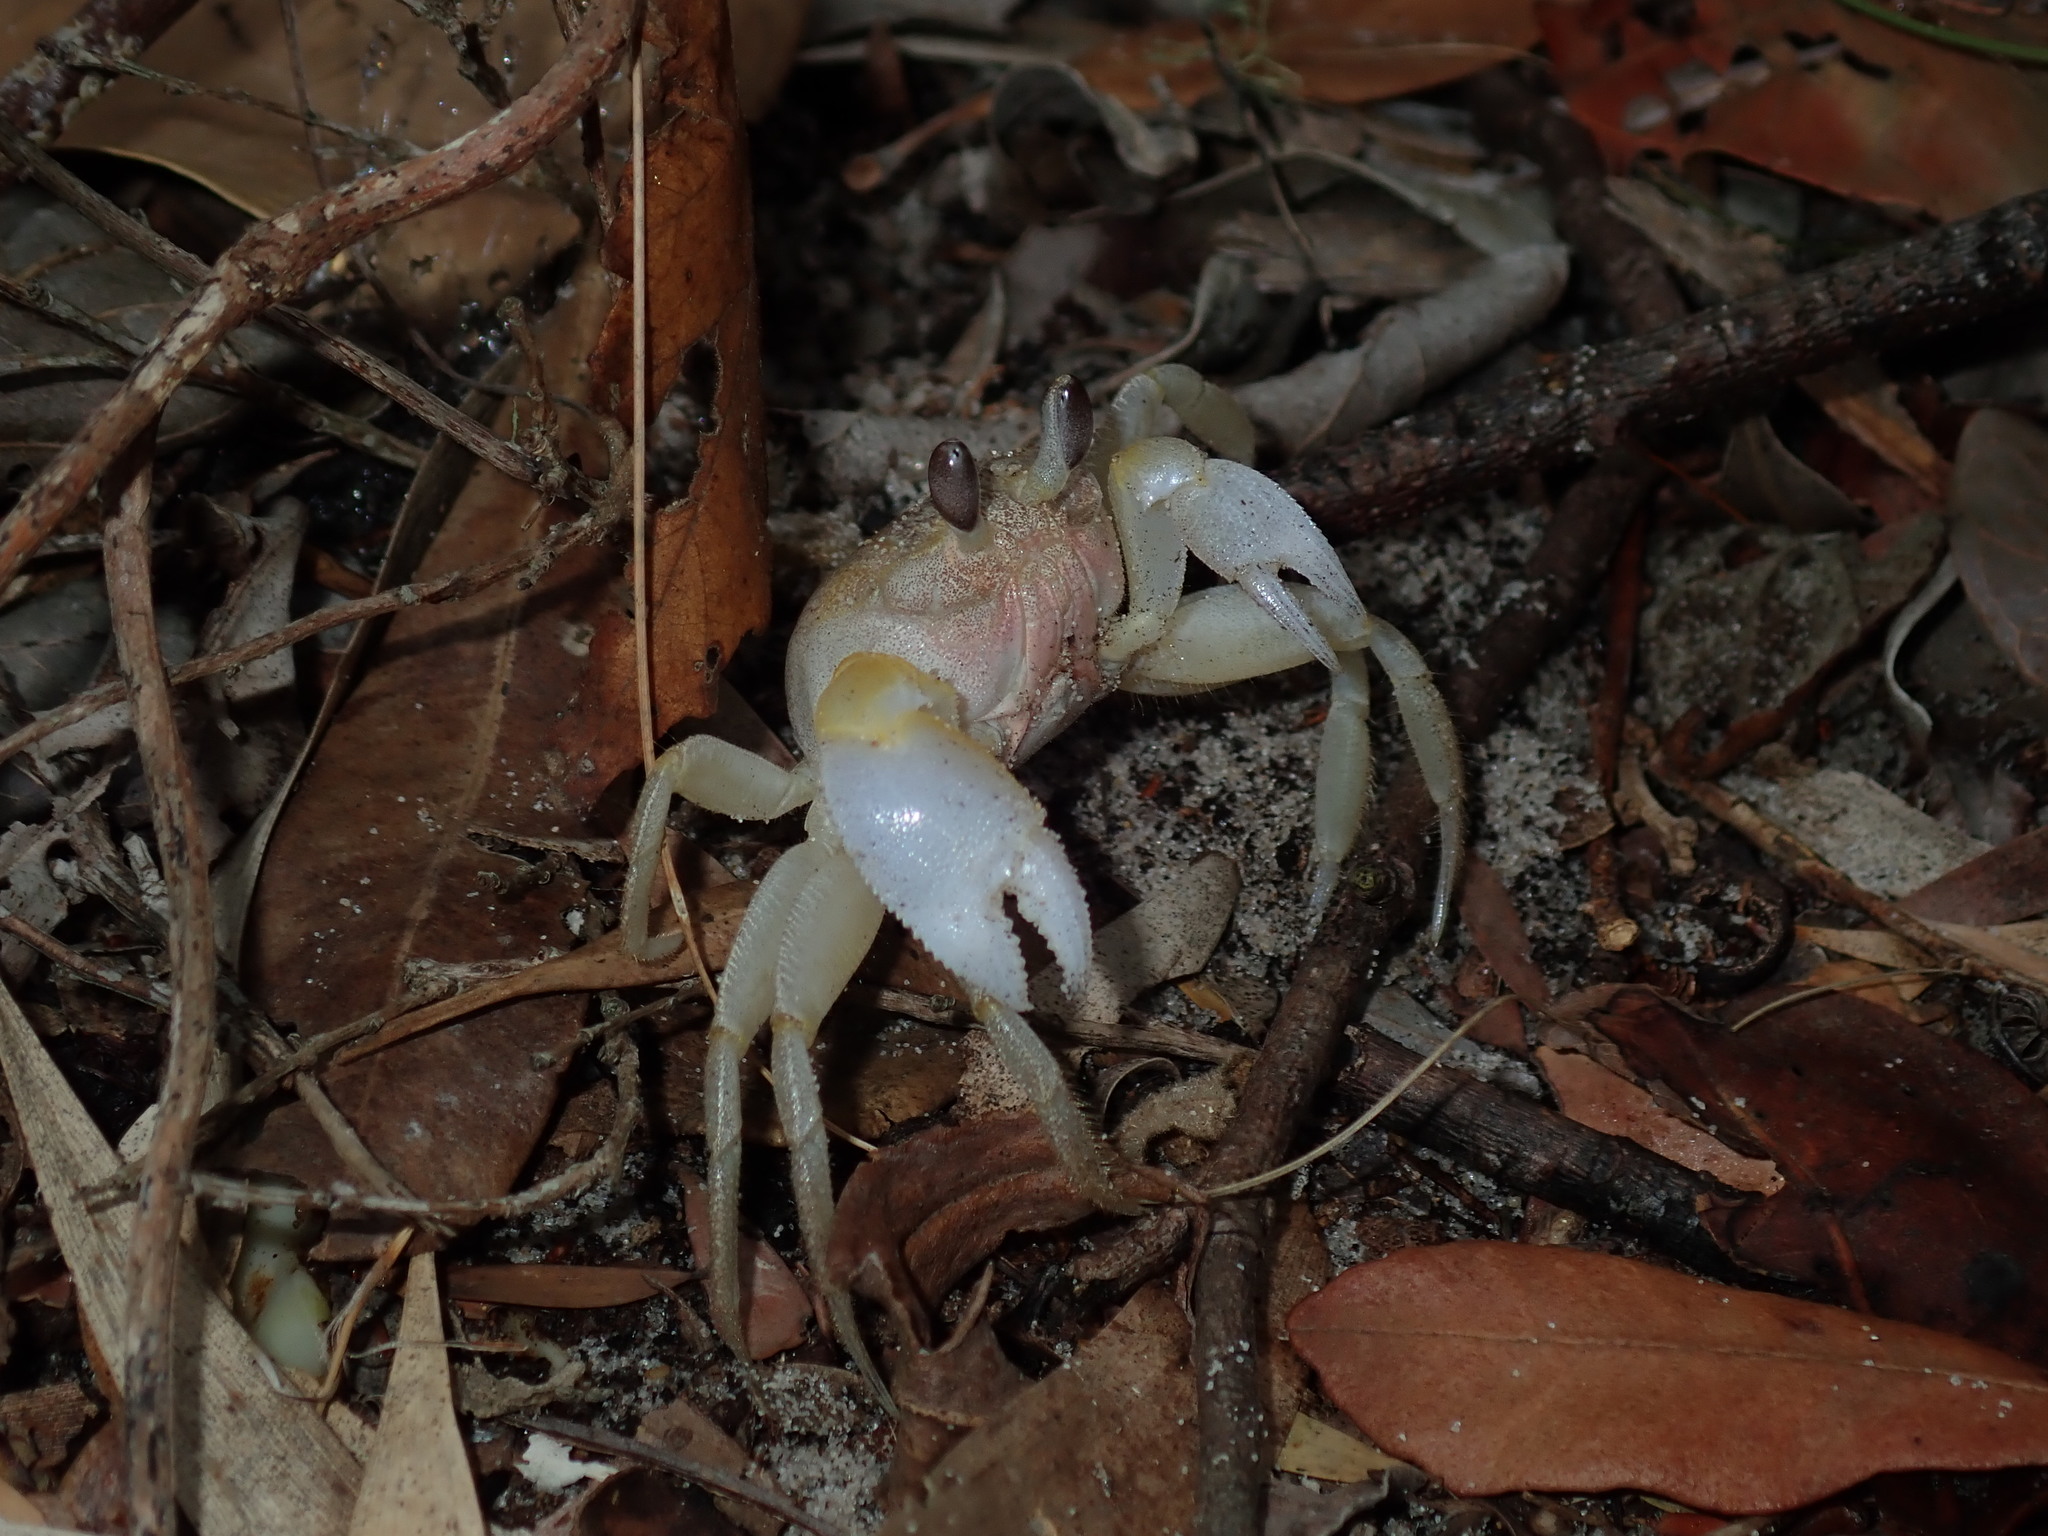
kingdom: Animalia
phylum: Arthropoda
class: Malacostraca
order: Decapoda
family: Ocypodidae
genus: Ocypode
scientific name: Ocypode cordimana
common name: Smooth-eyed ghost crab
